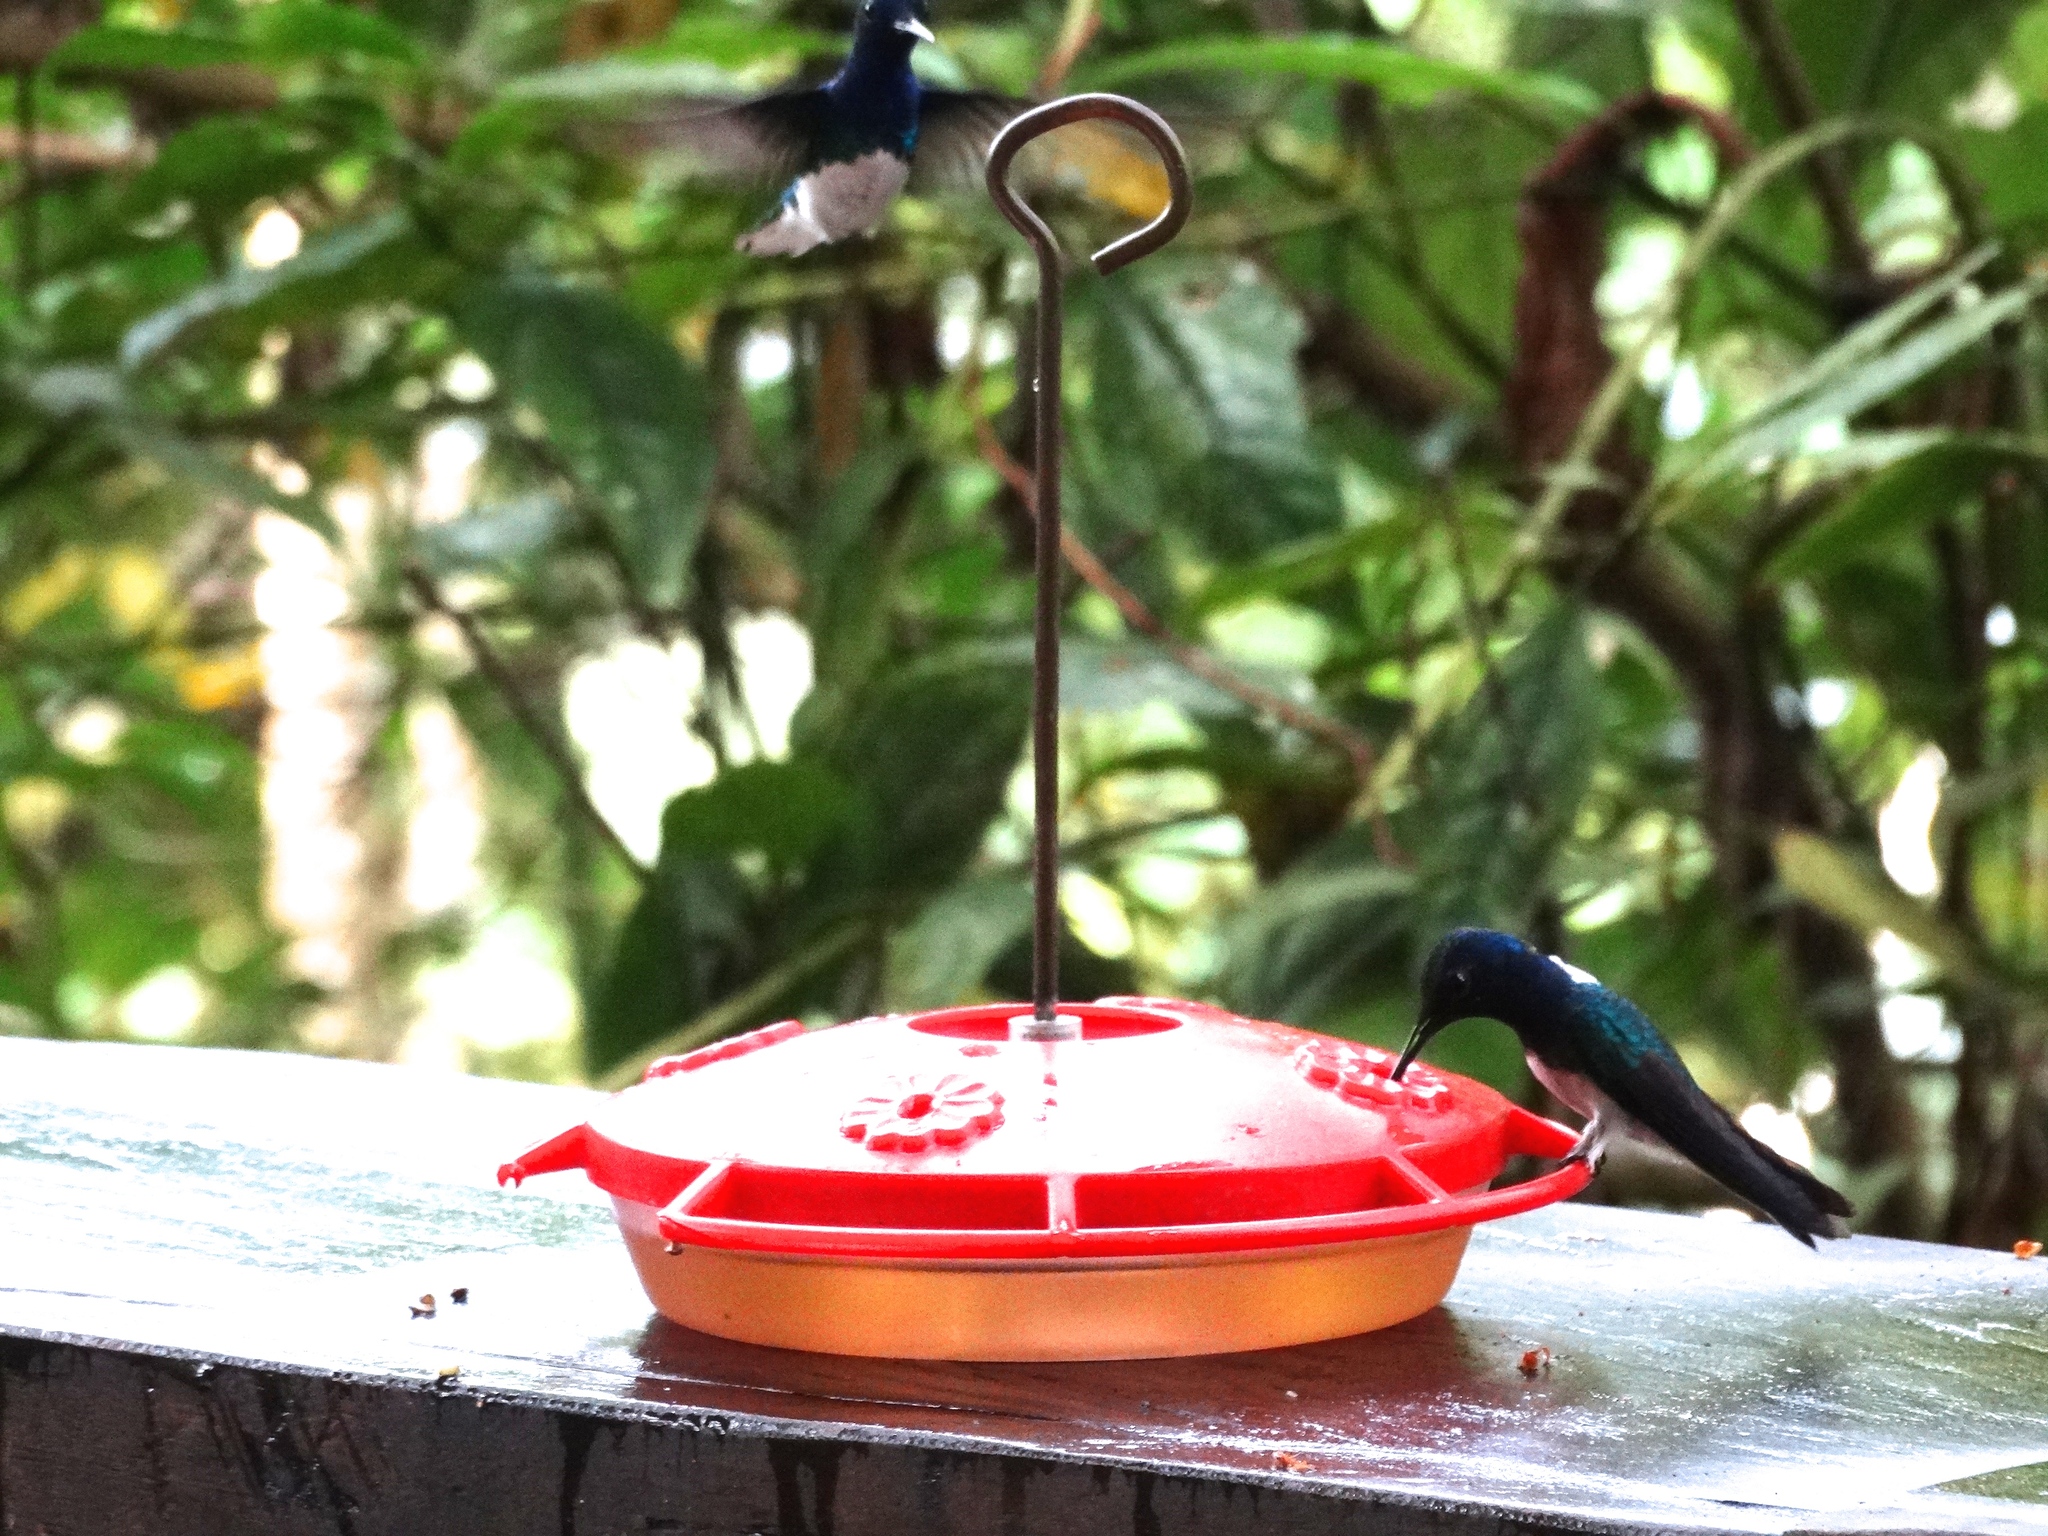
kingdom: Animalia
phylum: Chordata
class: Aves
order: Apodiformes
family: Trochilidae
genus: Florisuga
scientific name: Florisuga mellivora
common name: White-necked jacobin
